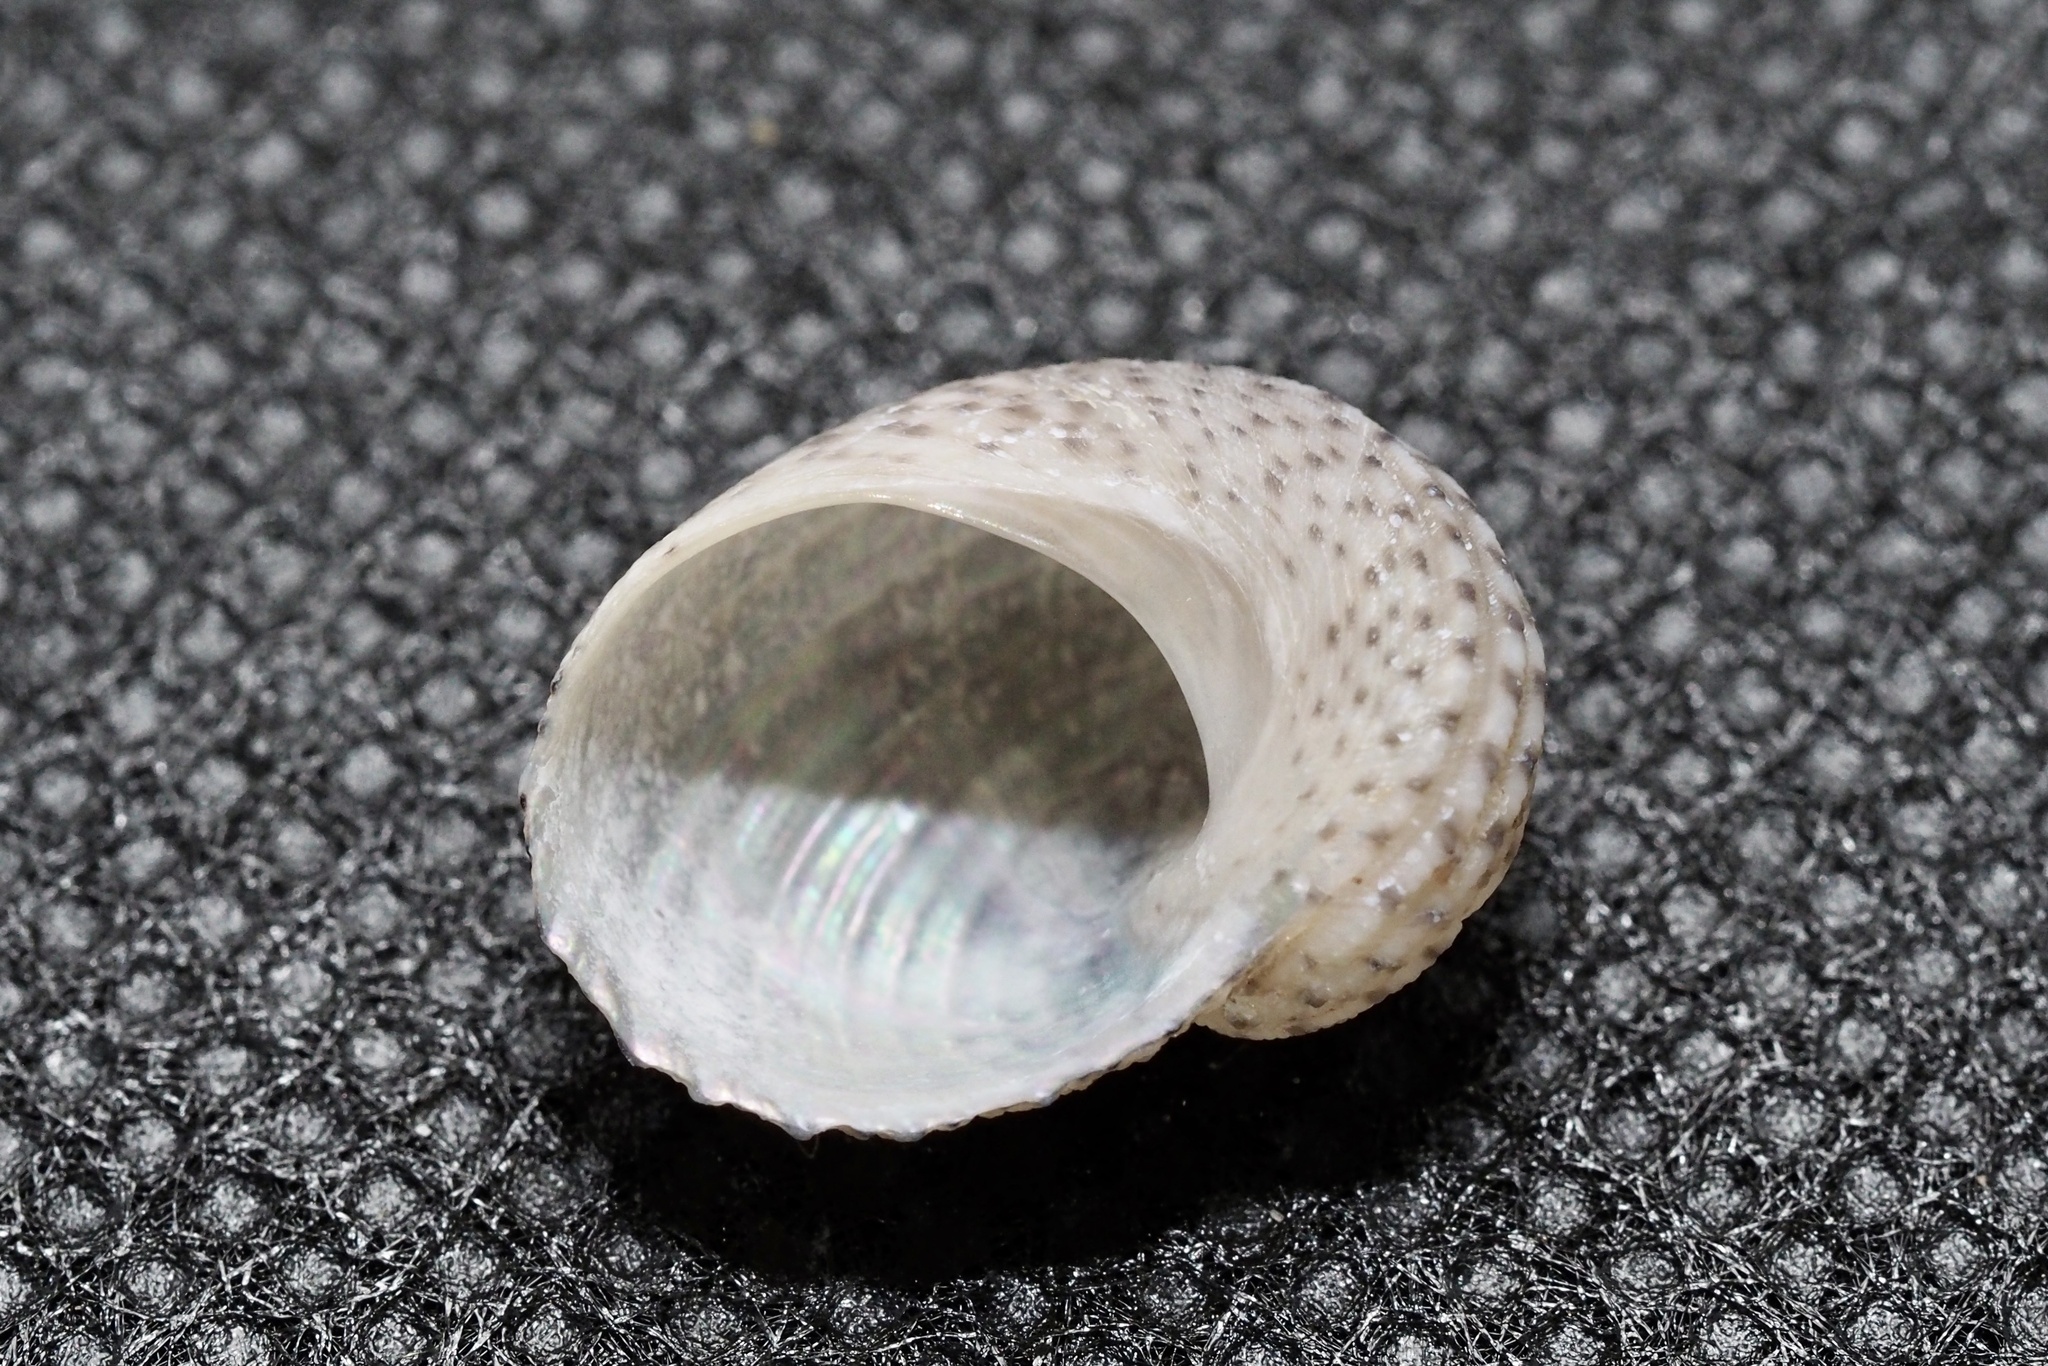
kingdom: Animalia
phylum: Mollusca
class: Gastropoda
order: Seguenziida
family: Chilodontaidae
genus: Granata
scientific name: Granata lyrata
